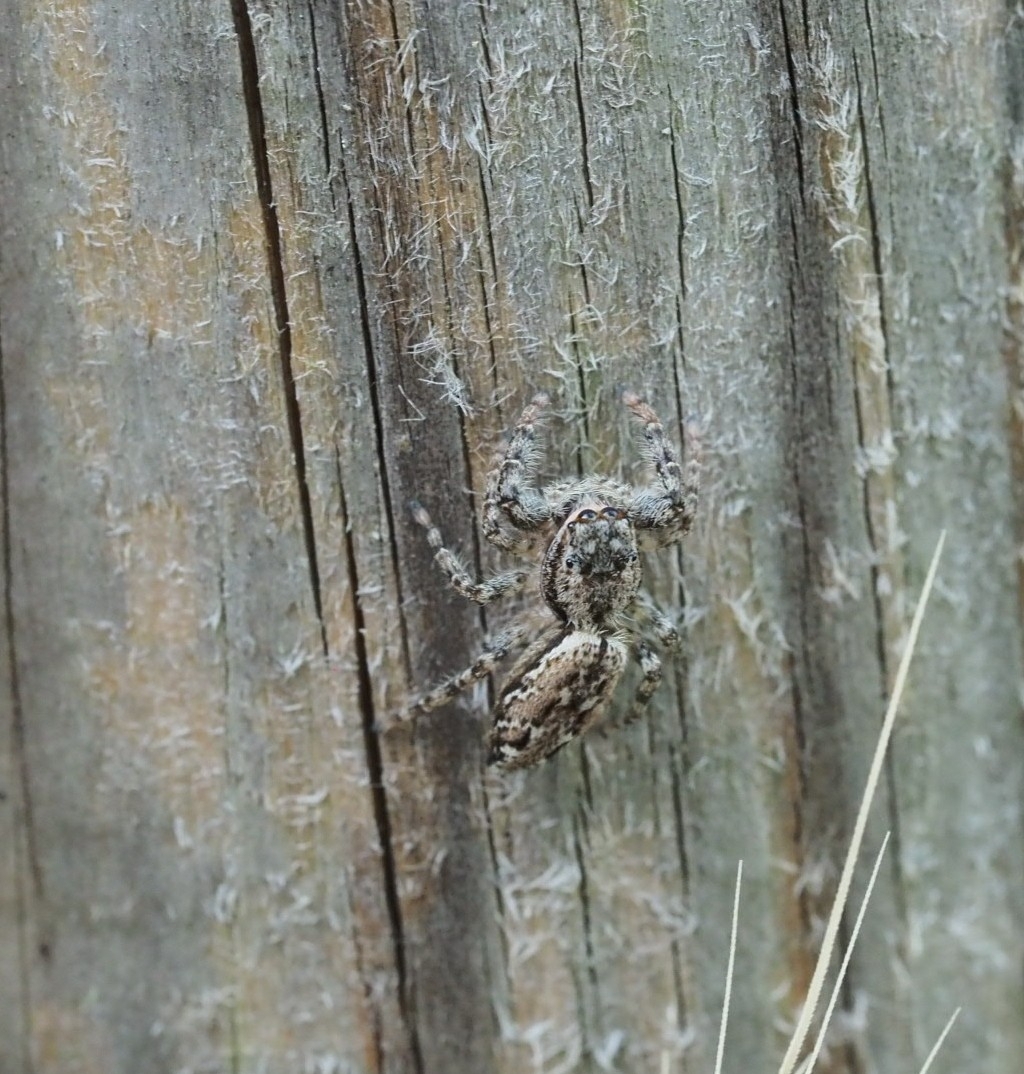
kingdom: Animalia
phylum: Arthropoda
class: Arachnida
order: Araneae
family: Salticidae
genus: Marpissa
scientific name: Marpissa muscosa
